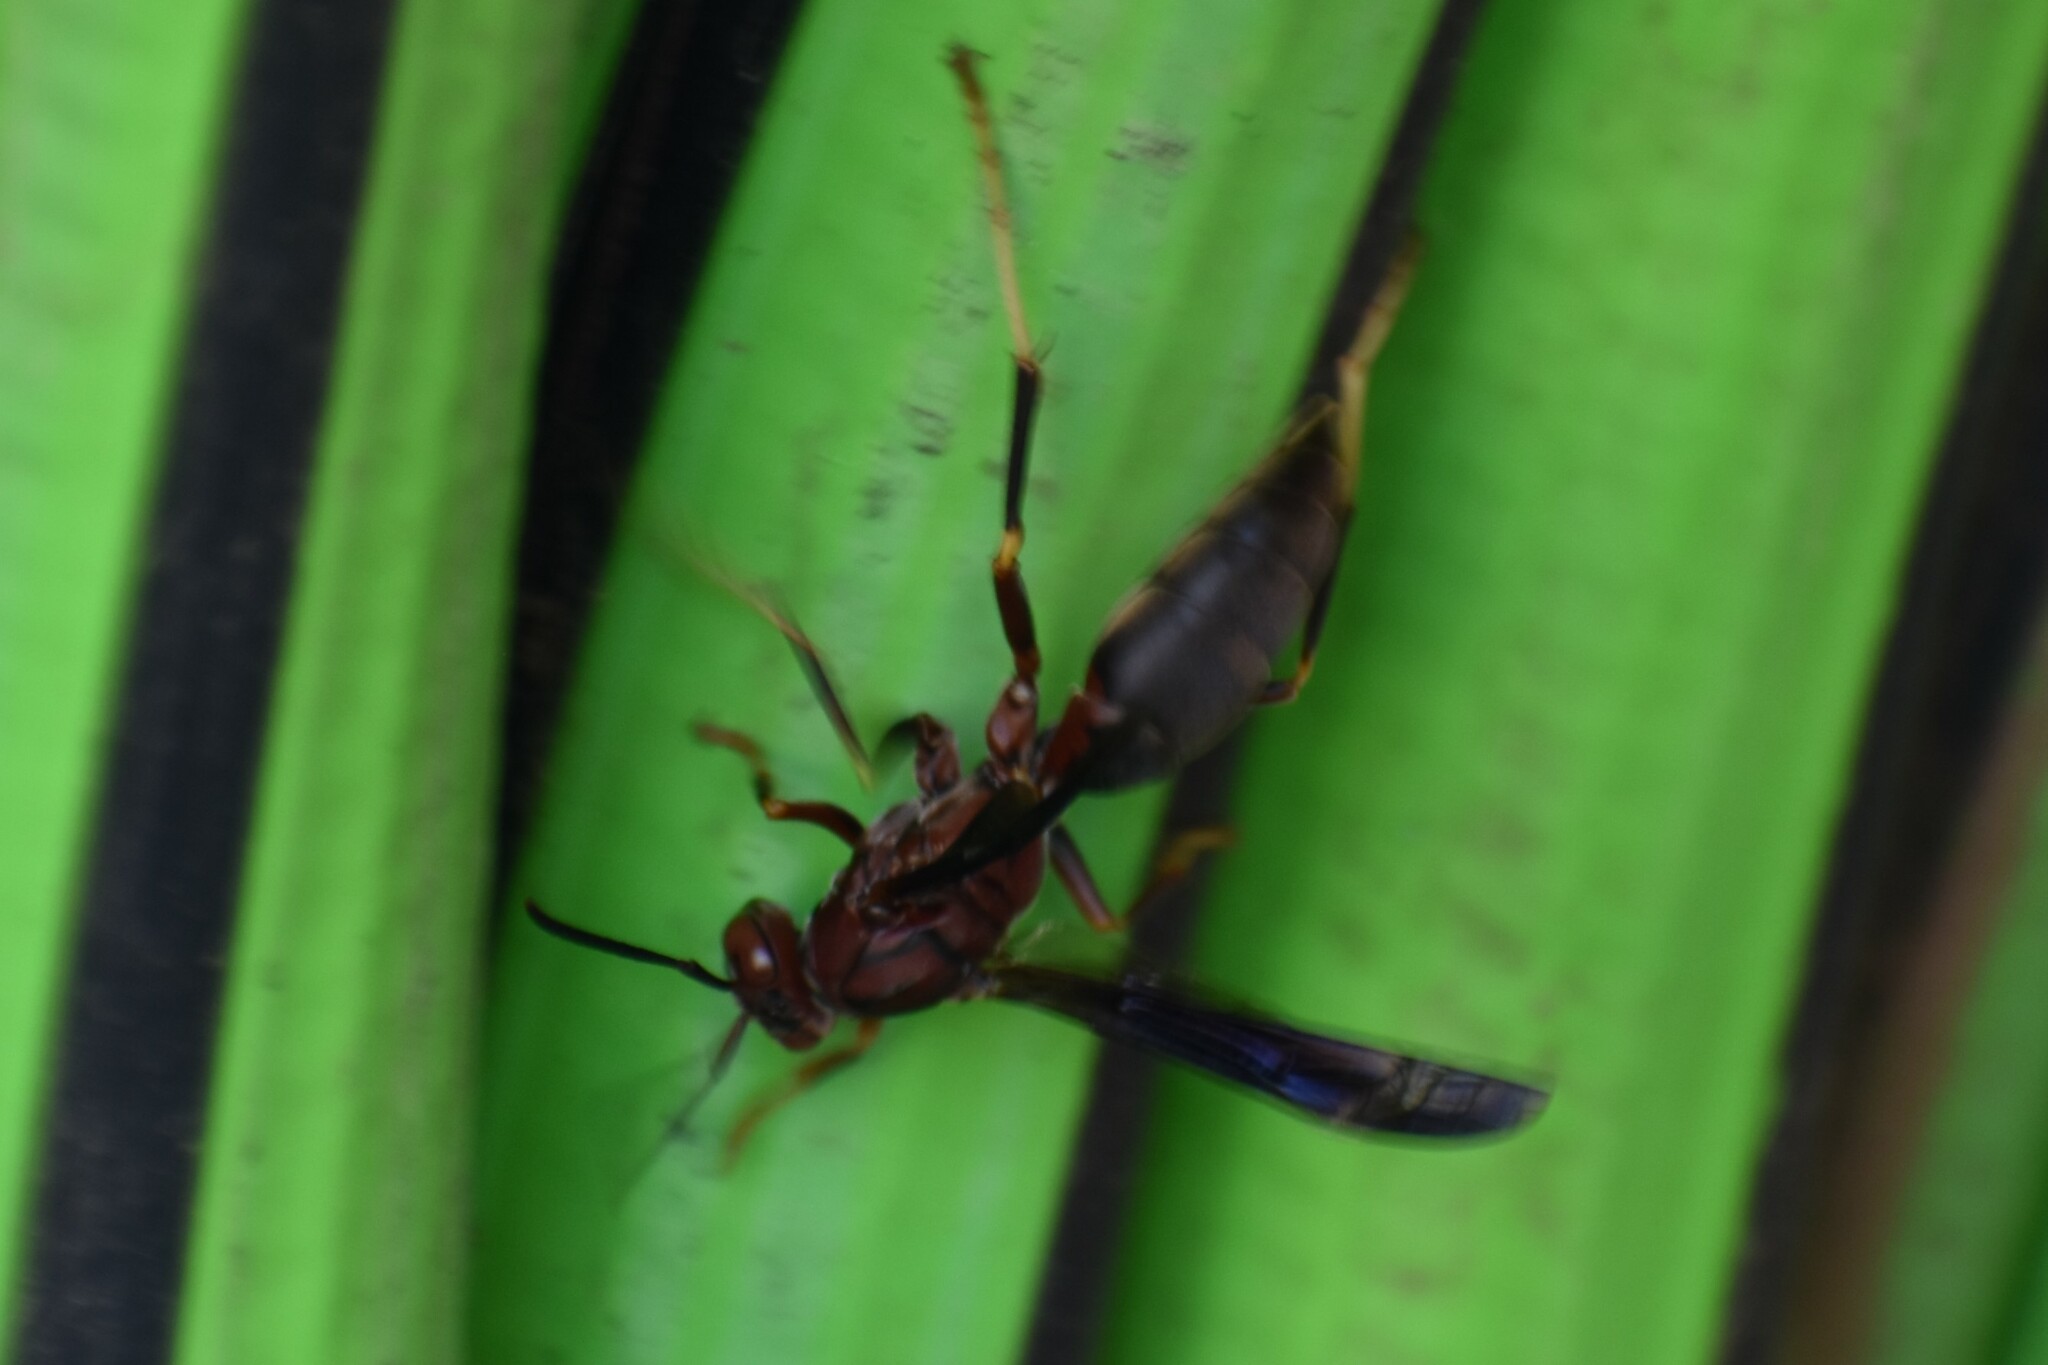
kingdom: Animalia
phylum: Arthropoda
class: Insecta
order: Hymenoptera
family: Eumenidae
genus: Polistes
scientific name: Polistes metricus
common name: Metric paper wasp
